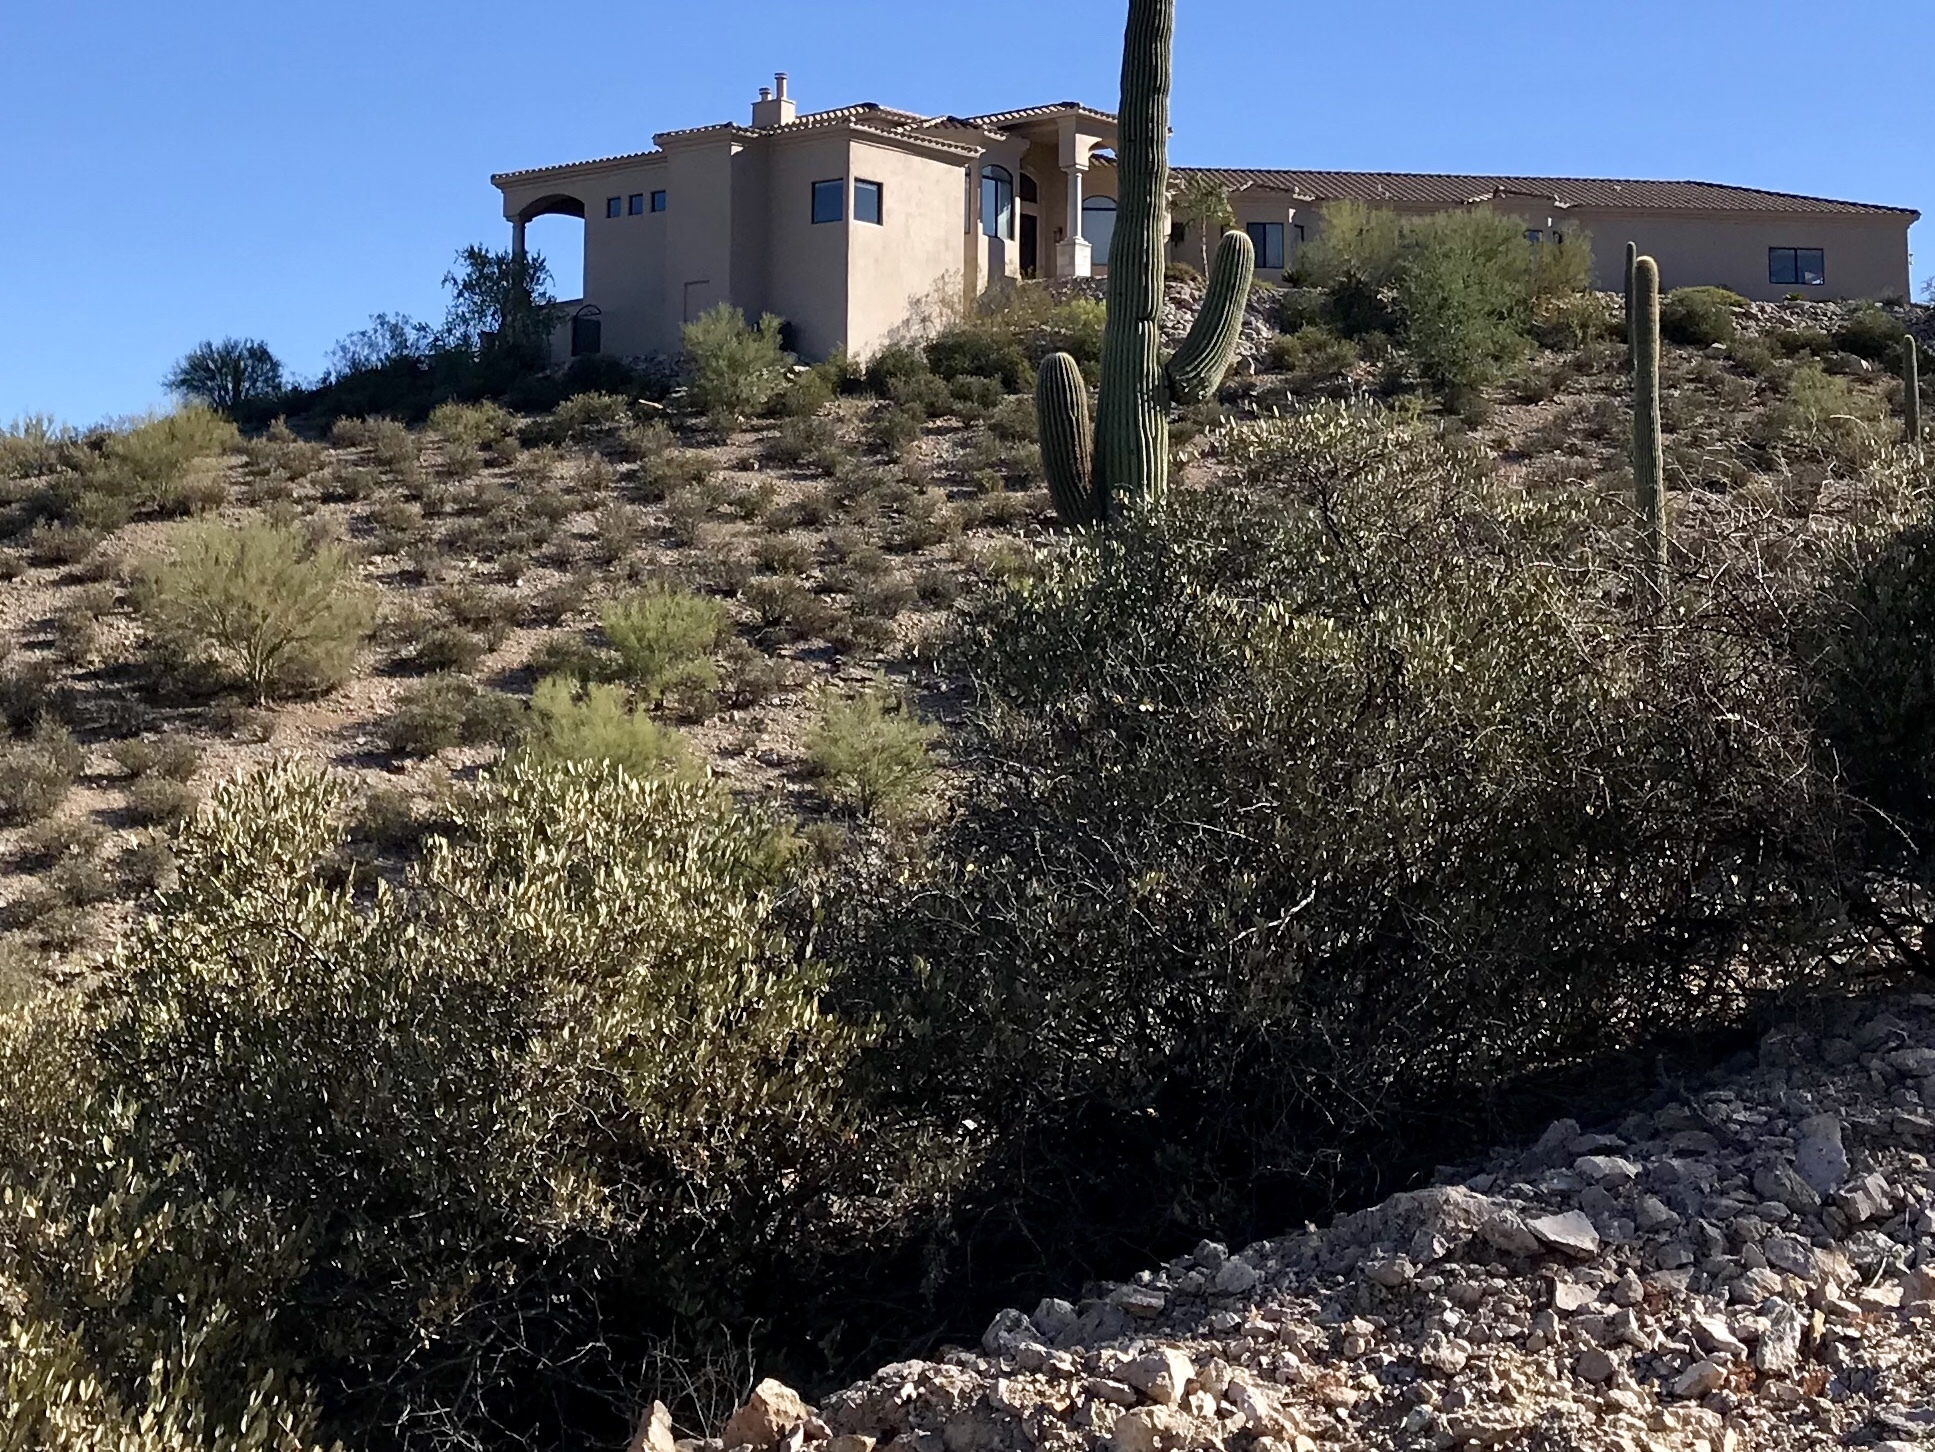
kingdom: Plantae
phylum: Tracheophyta
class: Magnoliopsida
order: Caryophyllales
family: Simmondsiaceae
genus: Simmondsia
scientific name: Simmondsia chinensis
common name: Jojoba
